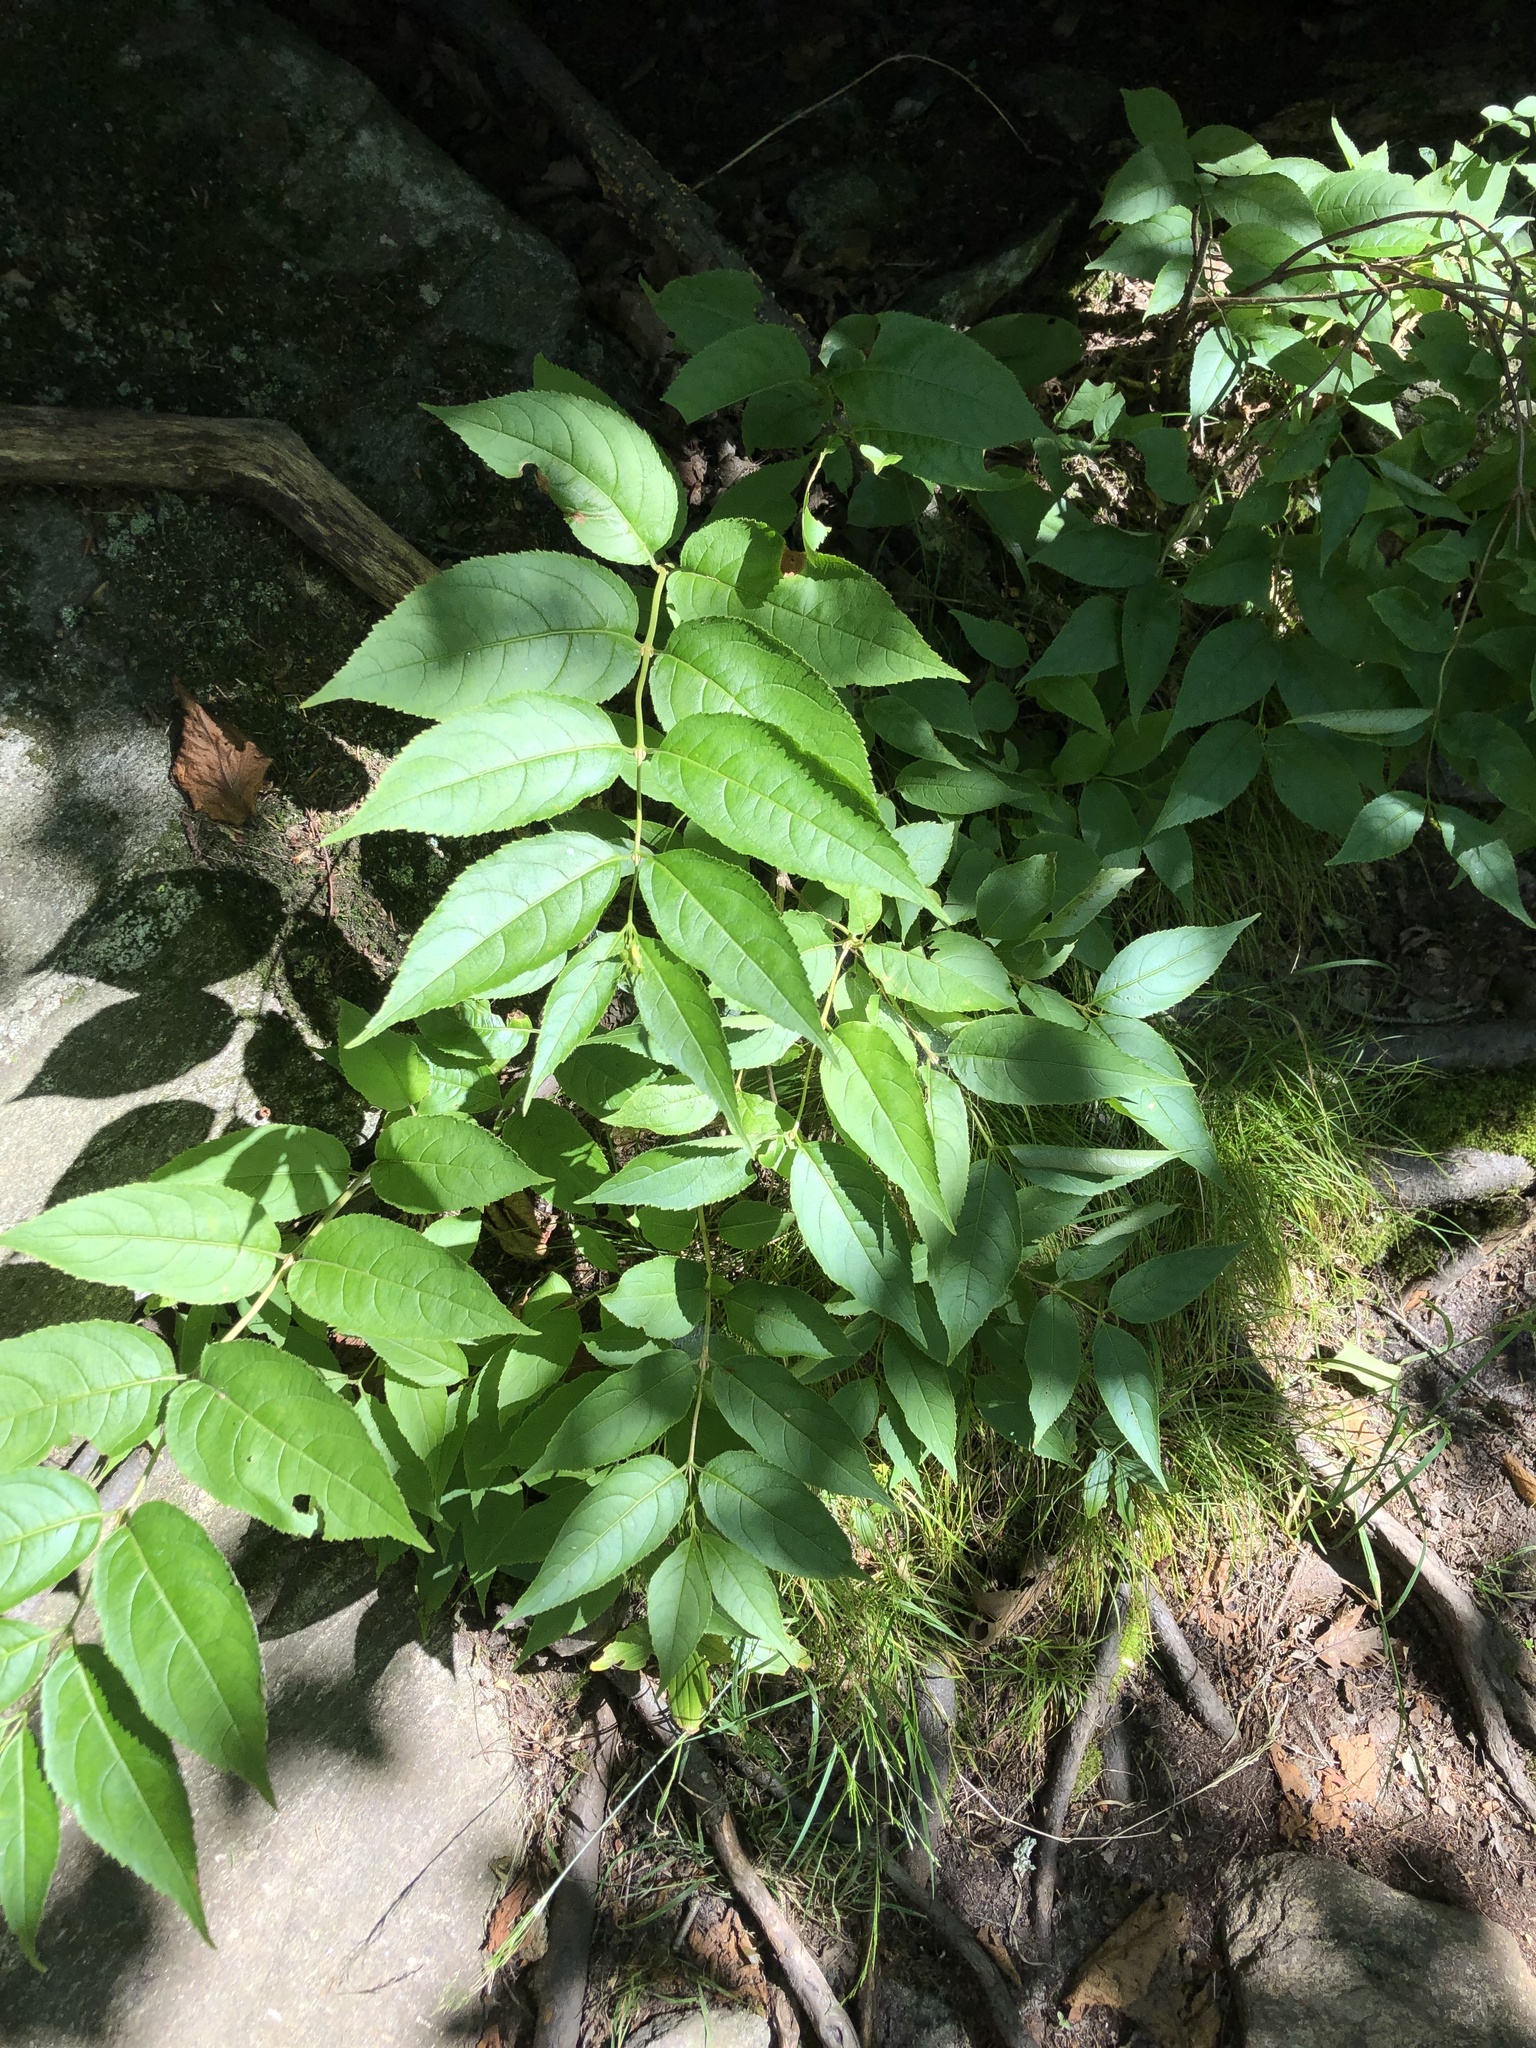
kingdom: Plantae
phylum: Tracheophyta
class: Magnoliopsida
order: Dipsacales
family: Caprifoliaceae
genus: Diervilla
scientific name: Diervilla lonicera
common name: Bush-honeysuckle
